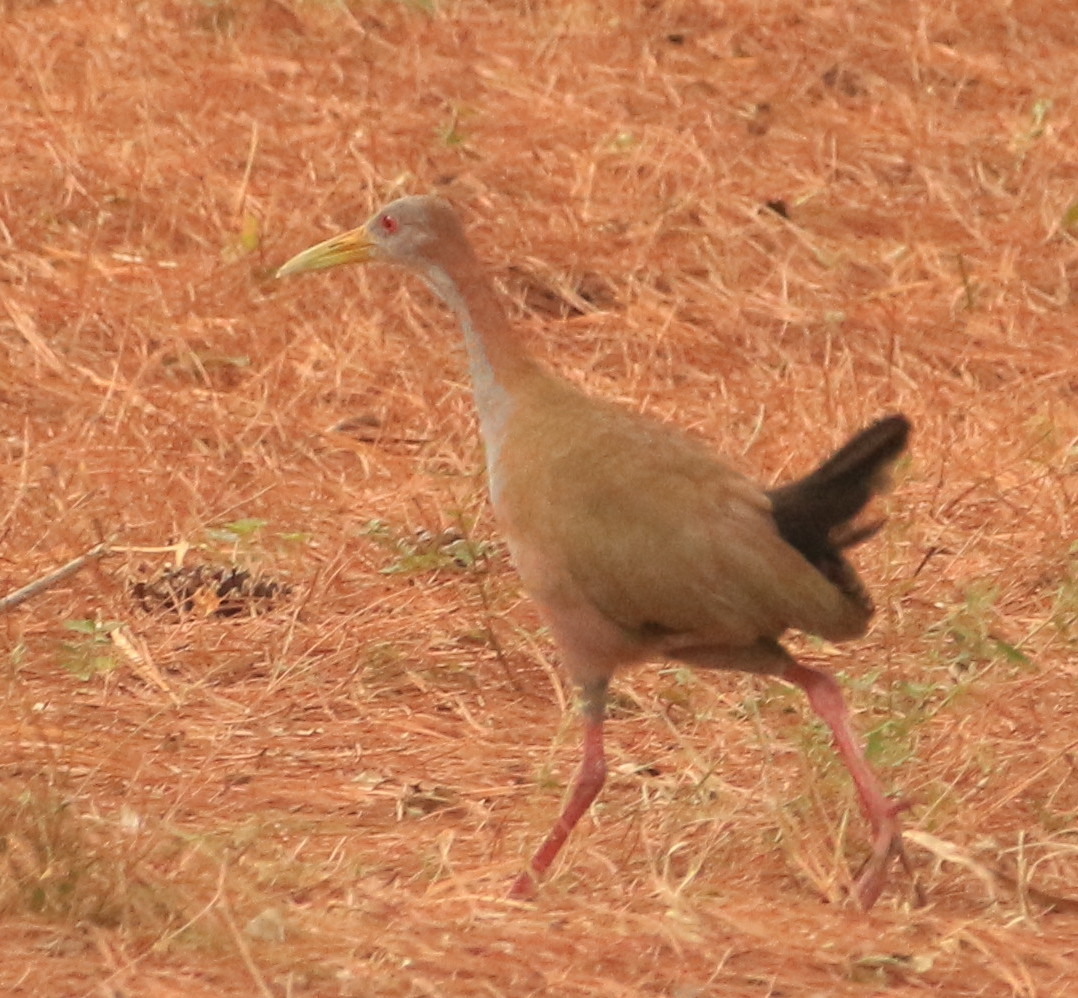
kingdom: Animalia
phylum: Chordata
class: Aves
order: Gruiformes
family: Rallidae
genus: Aramides
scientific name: Aramides ypecaha
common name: Giant wood rail
